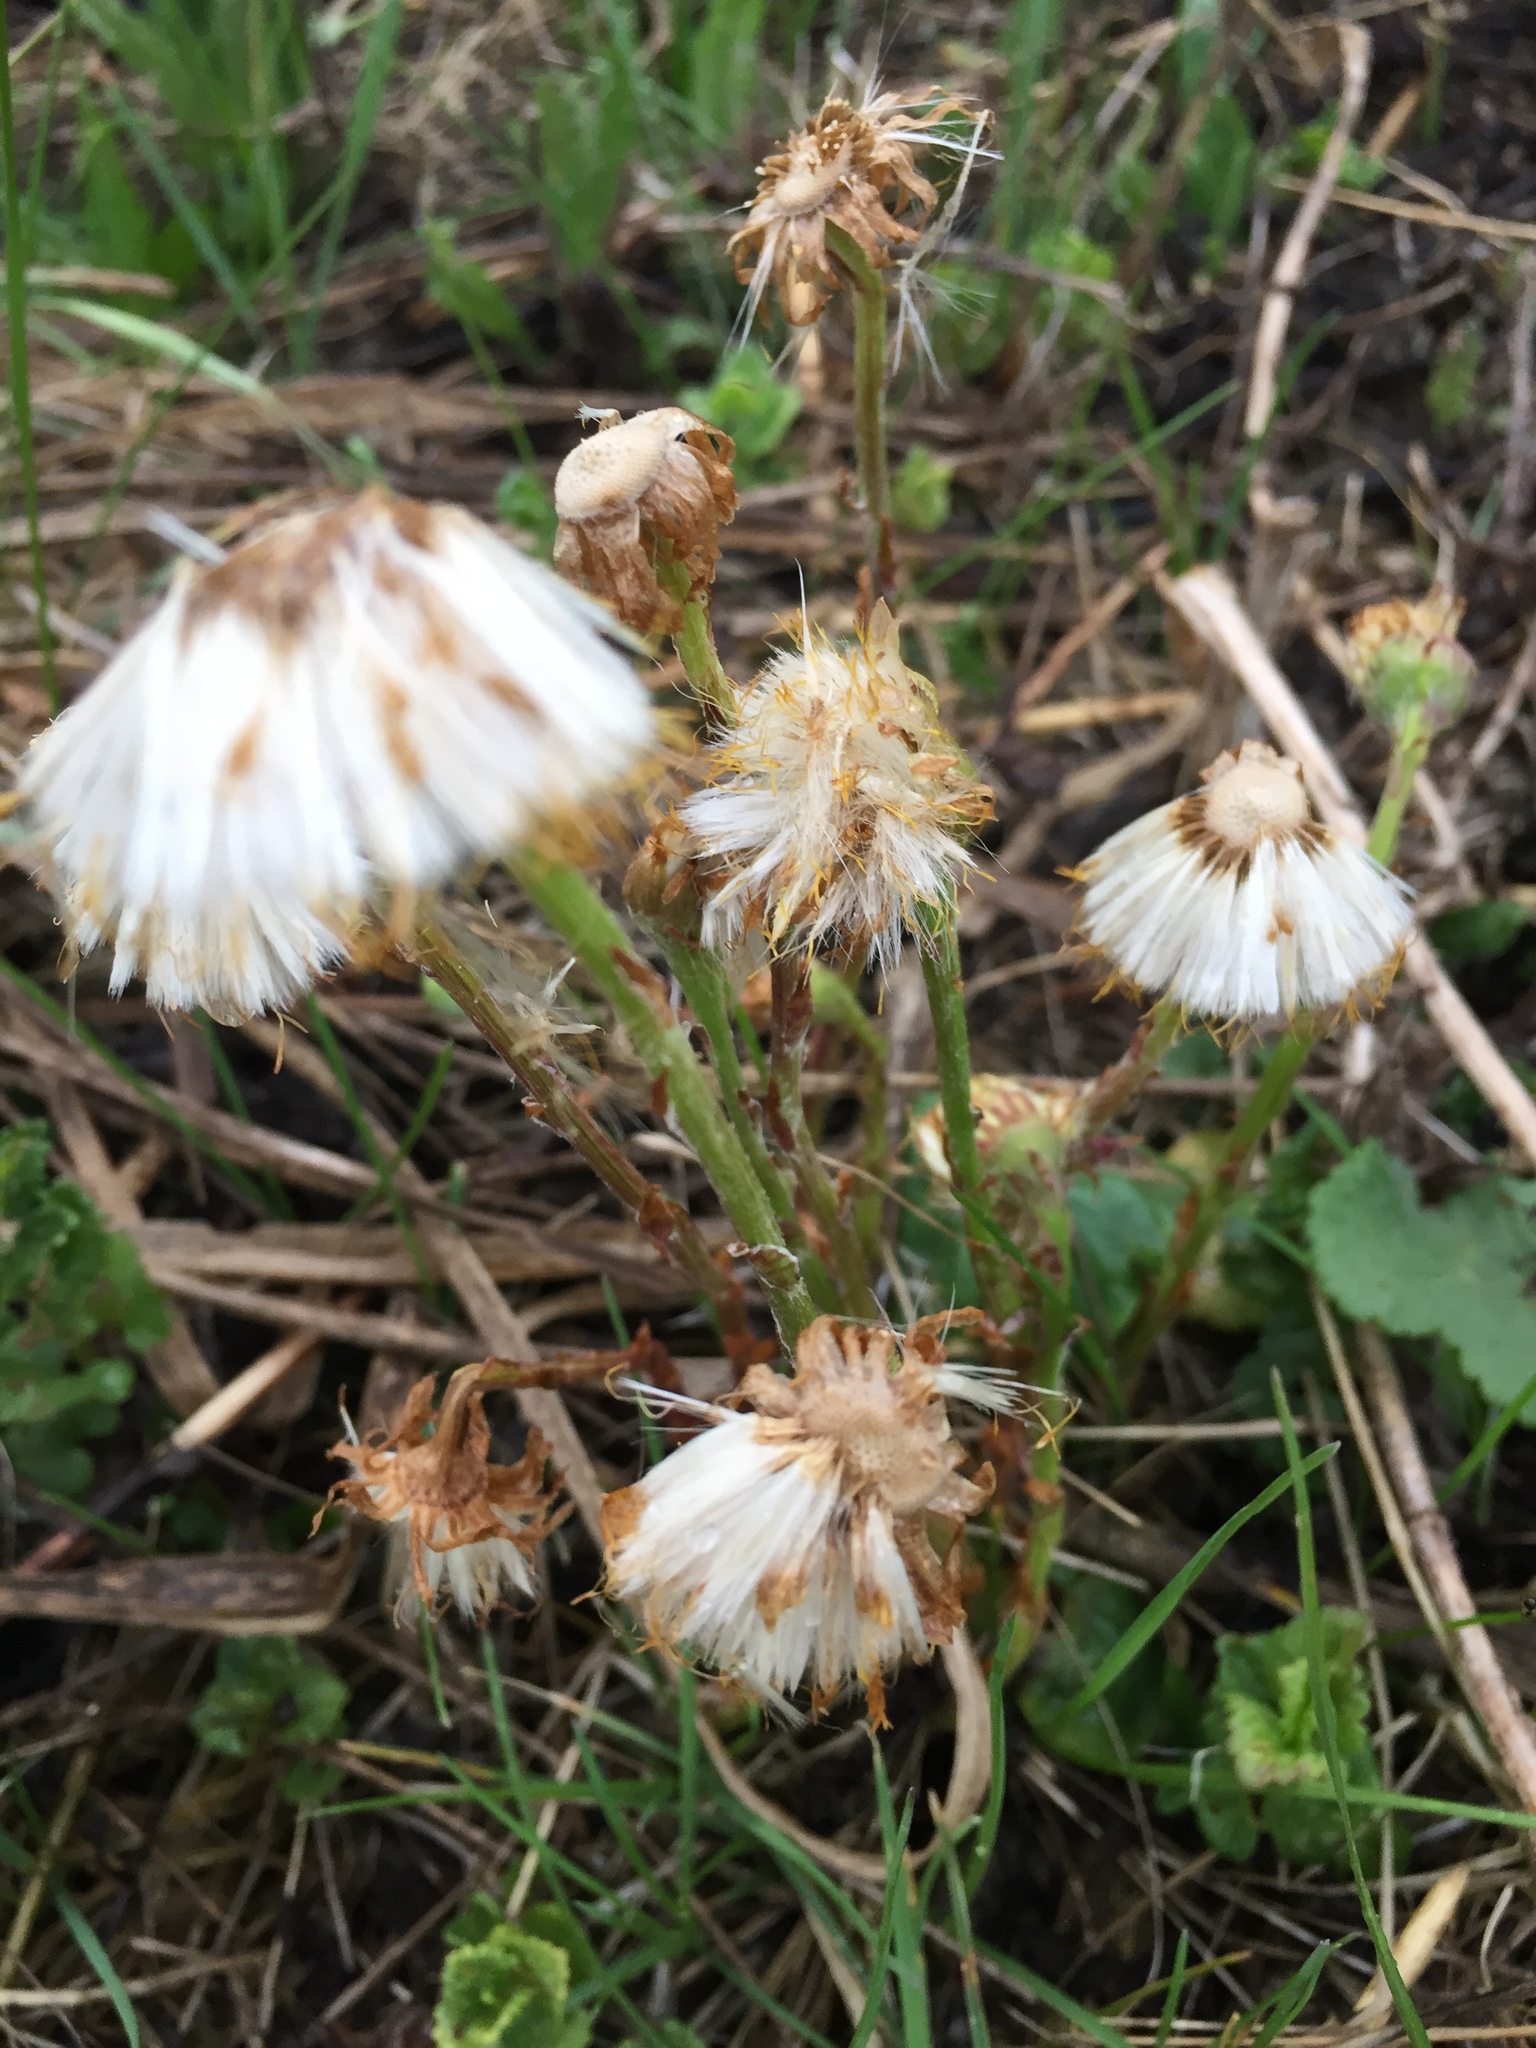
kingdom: Plantae
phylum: Tracheophyta
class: Magnoliopsida
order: Asterales
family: Asteraceae
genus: Tussilago
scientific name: Tussilago farfara
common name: Coltsfoot
